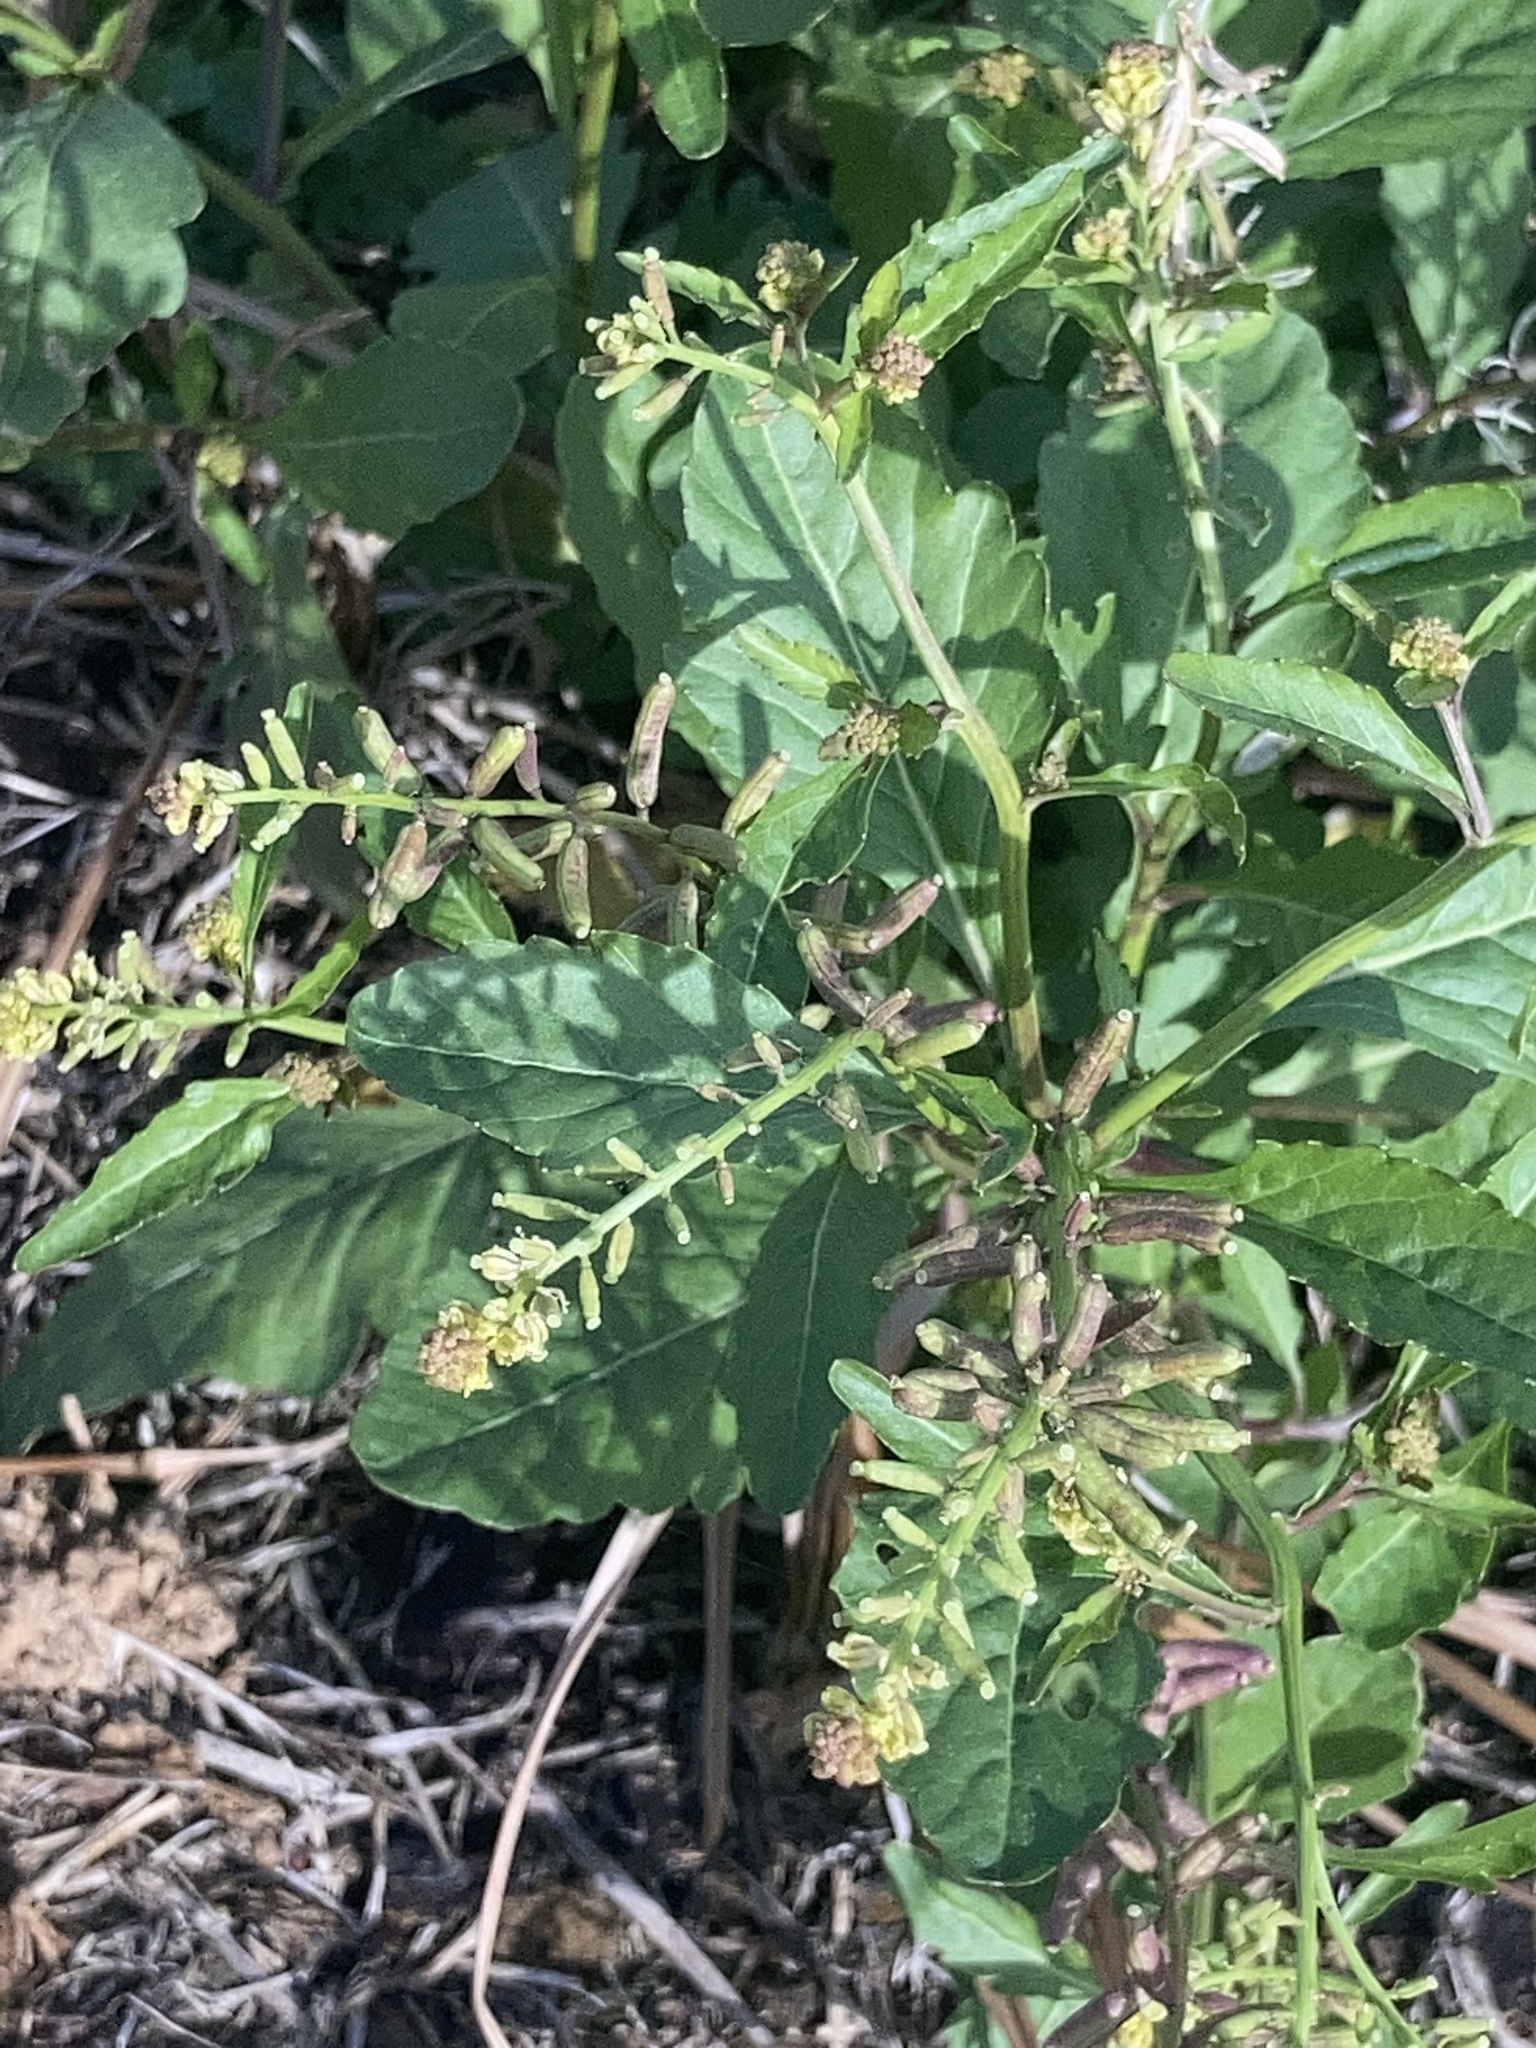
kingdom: Plantae
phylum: Tracheophyta
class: Magnoliopsida
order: Brassicales
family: Brassicaceae
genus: Rorippa
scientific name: Rorippa sessiliflora
